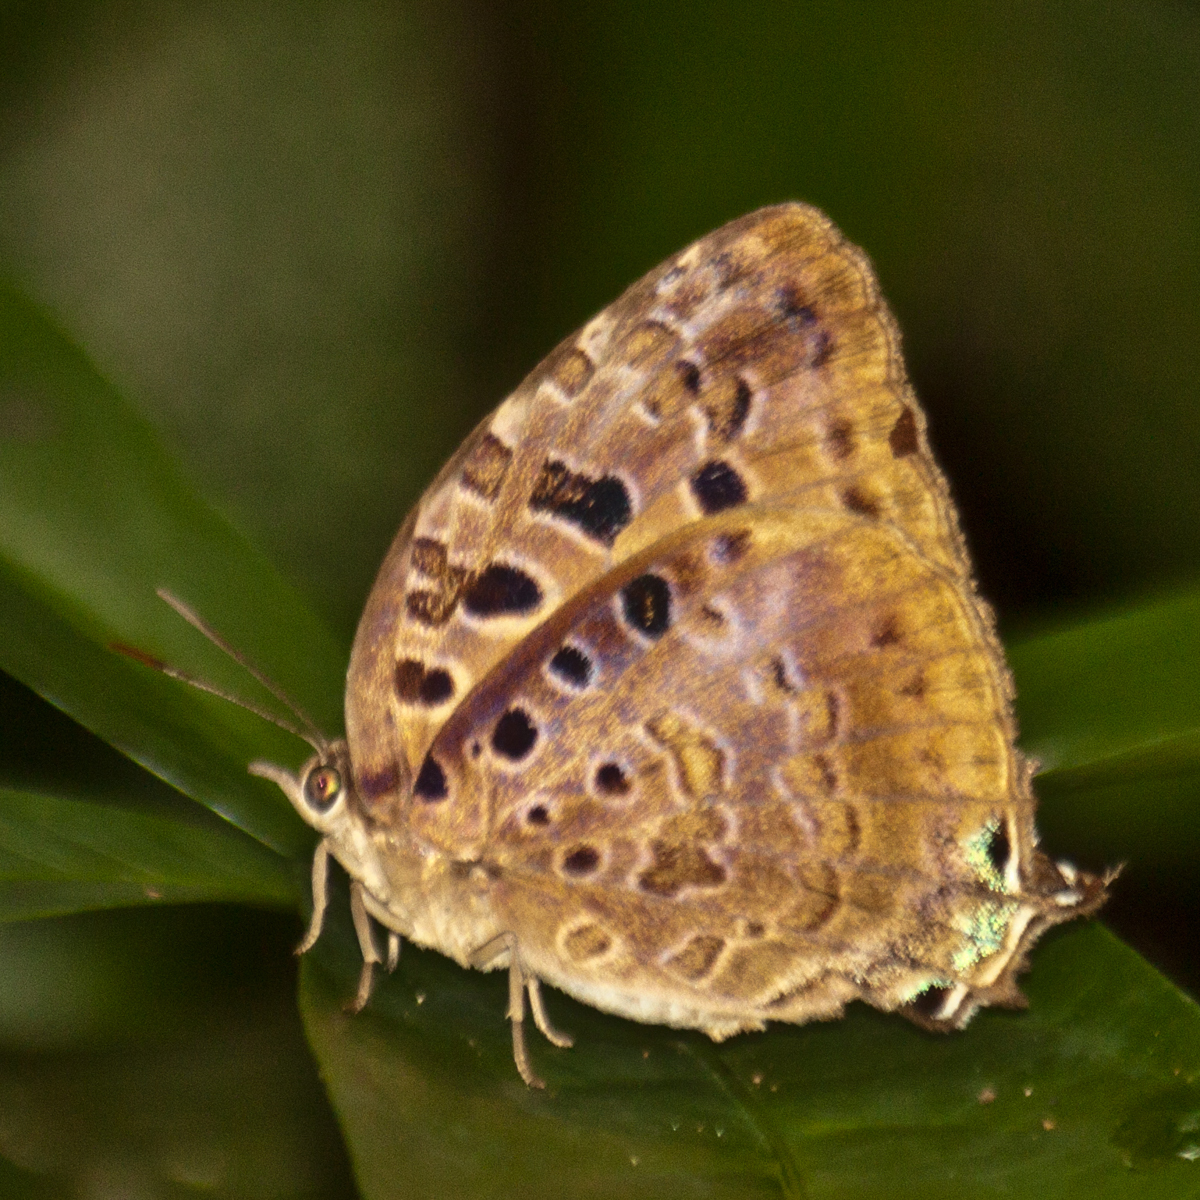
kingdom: Animalia
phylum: Arthropoda
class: Insecta
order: Lepidoptera
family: Lycaenidae
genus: Arhopala
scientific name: Arhopala anthelus
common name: Bushblue
